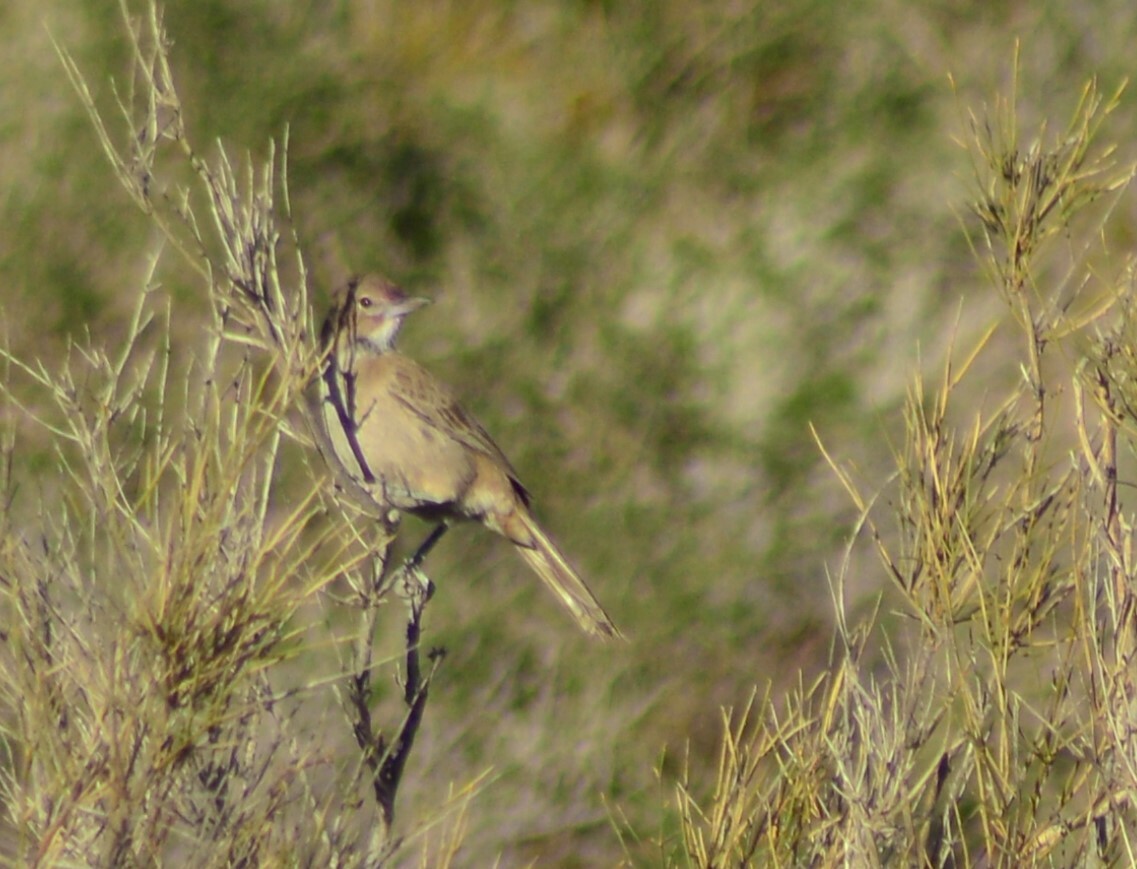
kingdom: Animalia
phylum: Chordata
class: Aves
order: Passeriformes
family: Furnariidae
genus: Pseudoseisura
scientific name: Pseudoseisura gutturalis
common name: White-throated cacholote
